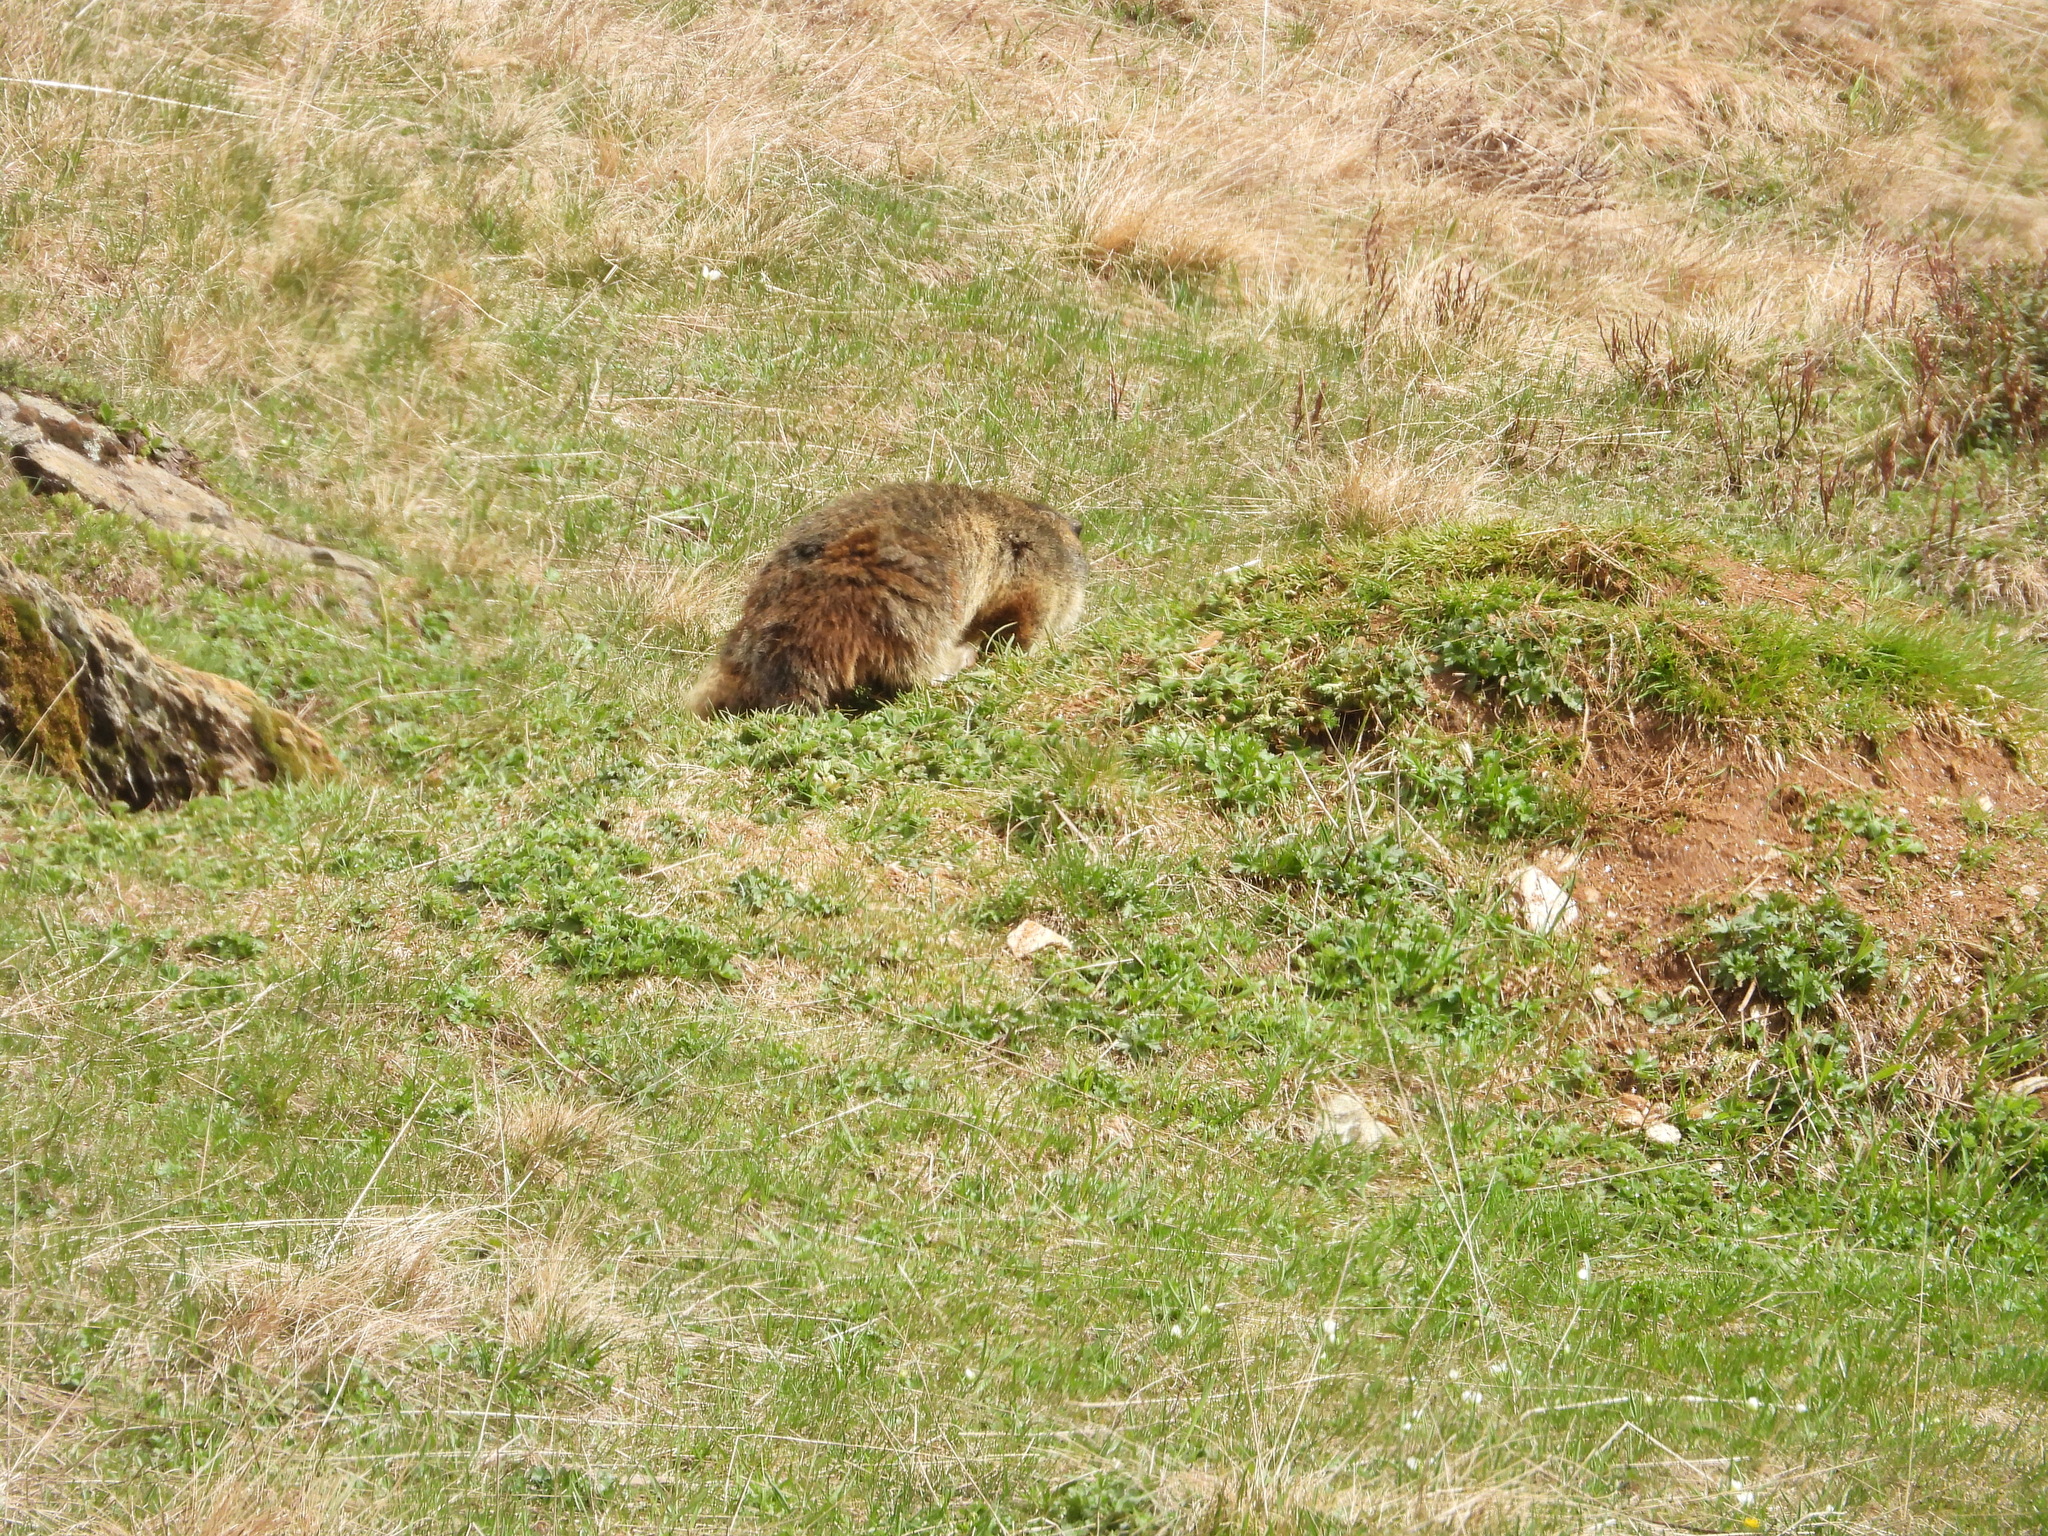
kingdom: Animalia
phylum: Chordata
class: Mammalia
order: Rodentia
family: Sciuridae
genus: Marmota
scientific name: Marmota marmota
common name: Alpine marmot
